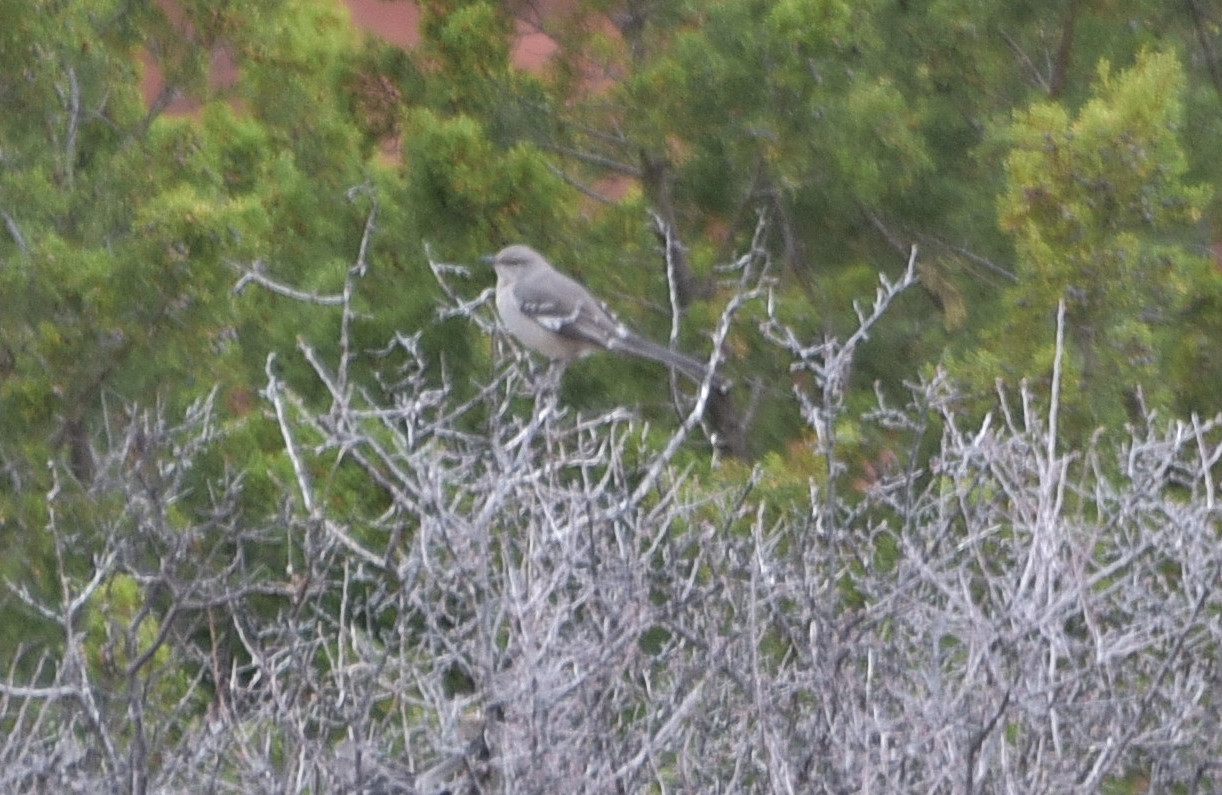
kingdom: Animalia
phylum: Chordata
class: Aves
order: Passeriformes
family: Mimidae
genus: Mimus
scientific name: Mimus polyglottos
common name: Northern mockingbird
